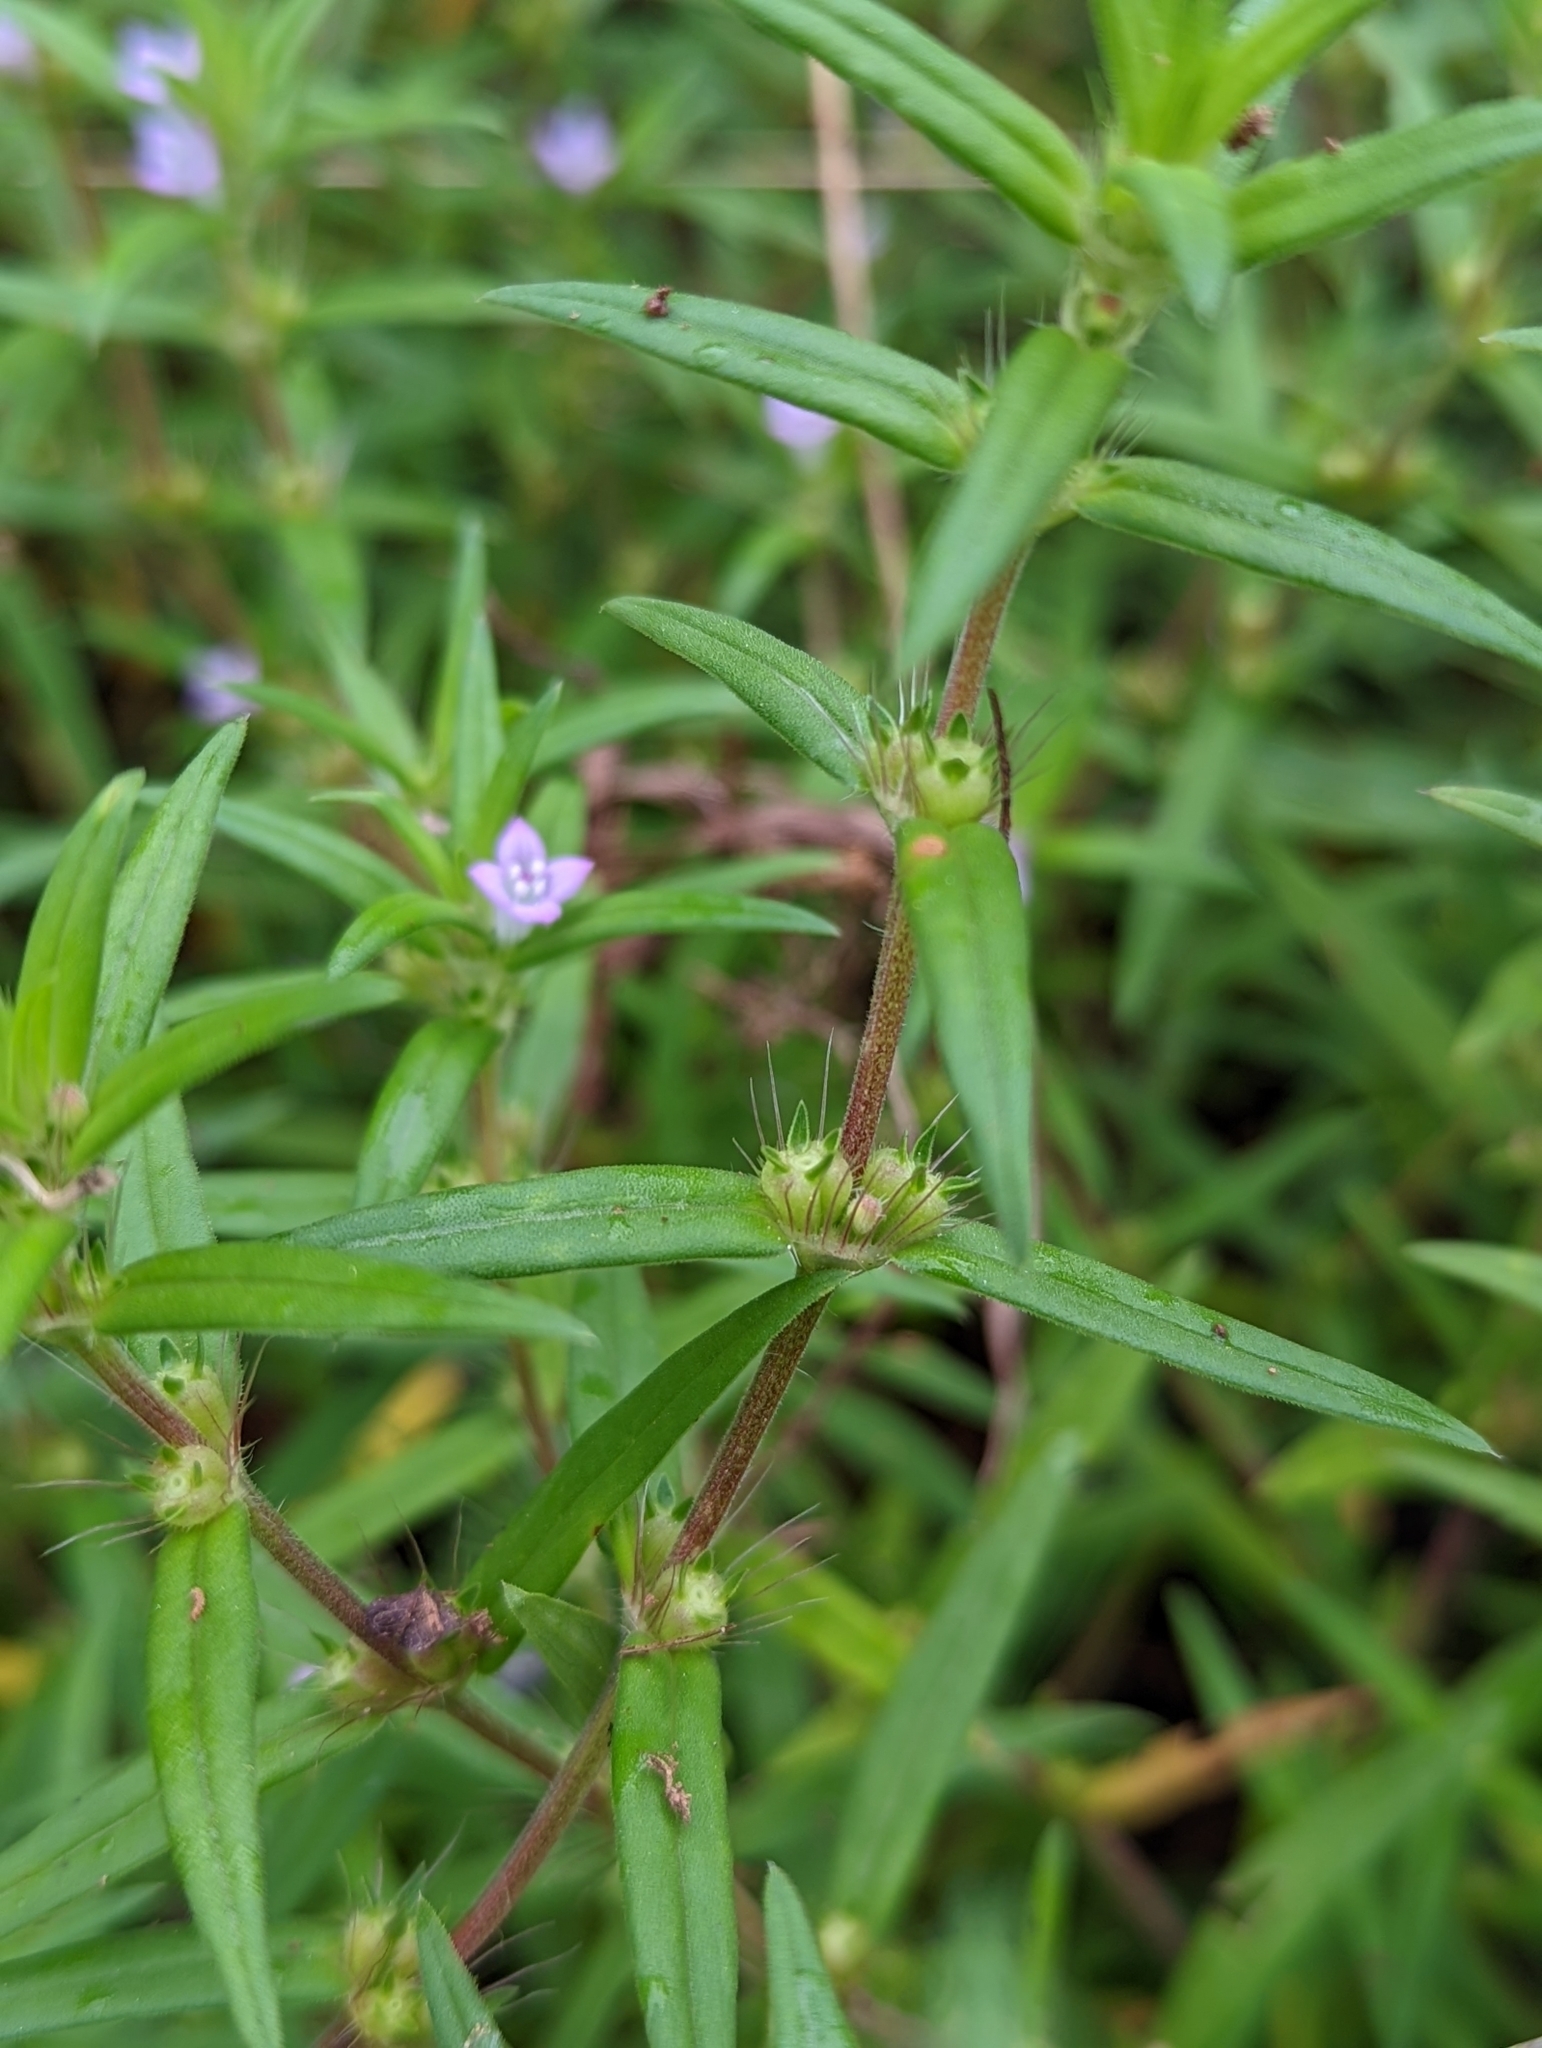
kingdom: Plantae
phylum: Tracheophyta
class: Magnoliopsida
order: Gentianales
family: Rubiaceae
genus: Hexasepalum
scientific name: Hexasepalum teres
